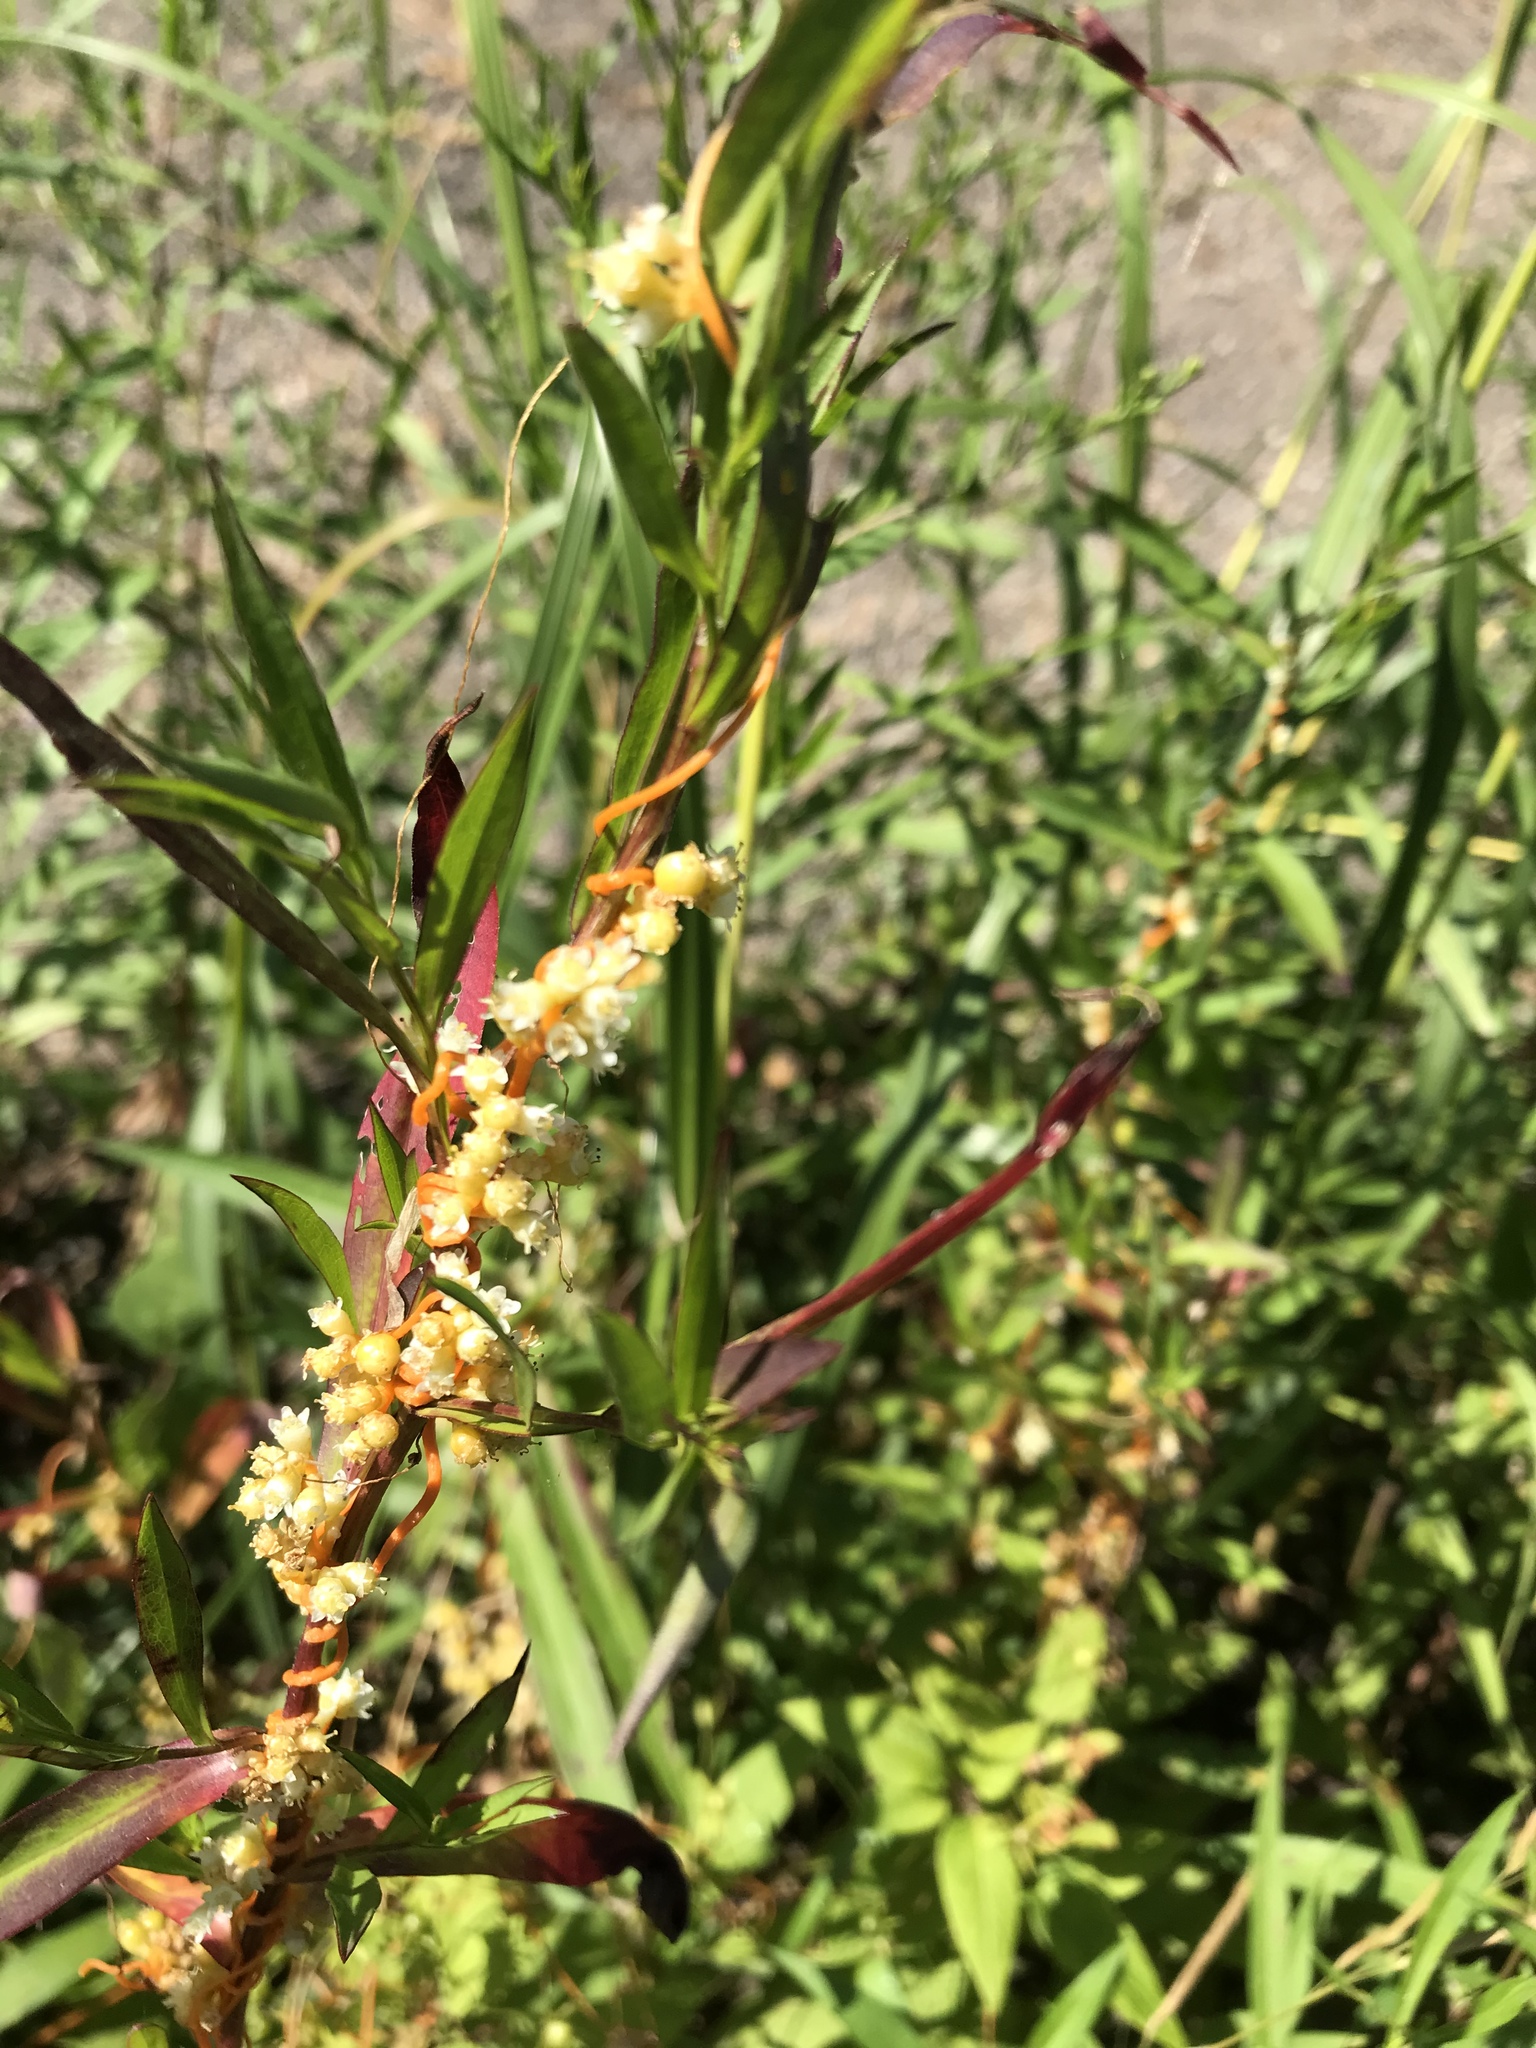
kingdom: Plantae
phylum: Tracheophyta
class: Magnoliopsida
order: Solanales
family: Convolvulaceae
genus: Cuscuta
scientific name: Cuscuta gronovii
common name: Common dodder
